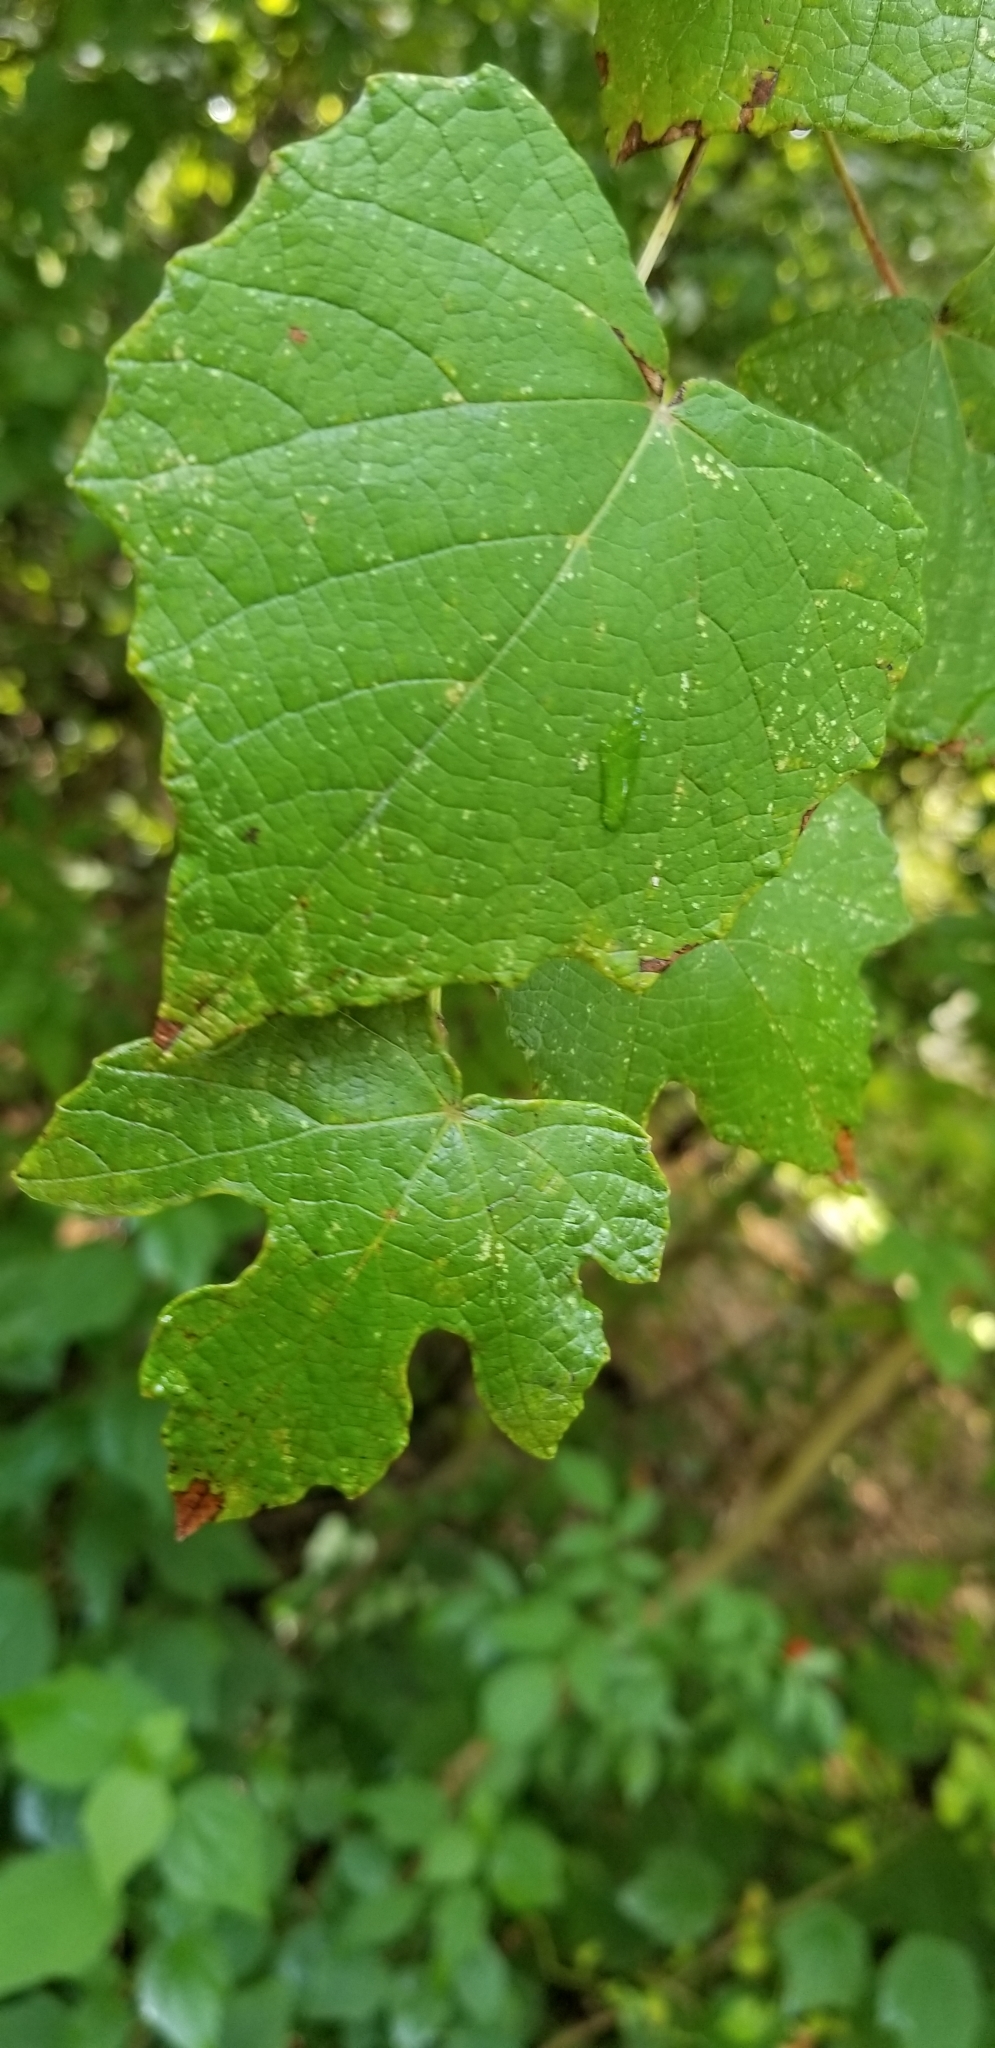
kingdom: Plantae
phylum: Tracheophyta
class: Magnoliopsida
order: Vitales
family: Vitaceae
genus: Vitis
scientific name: Vitis mustangensis
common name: Mustang grape
